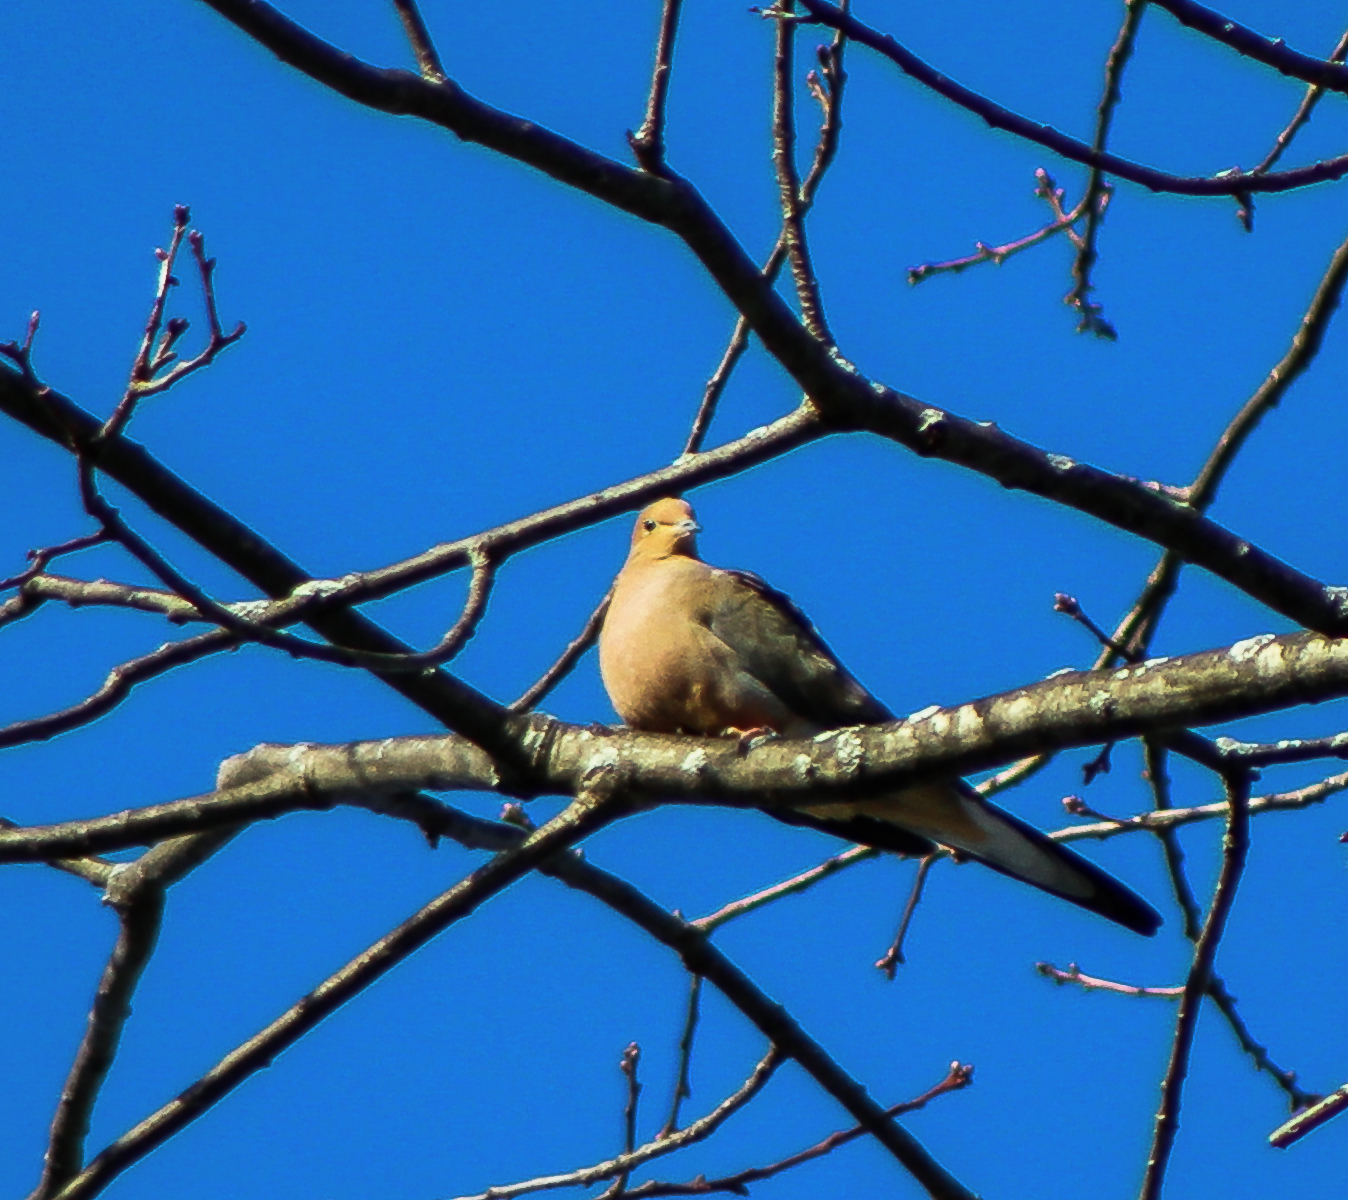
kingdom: Animalia
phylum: Chordata
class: Aves
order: Columbiformes
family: Columbidae
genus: Zenaida
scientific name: Zenaida macroura
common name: Mourning dove
